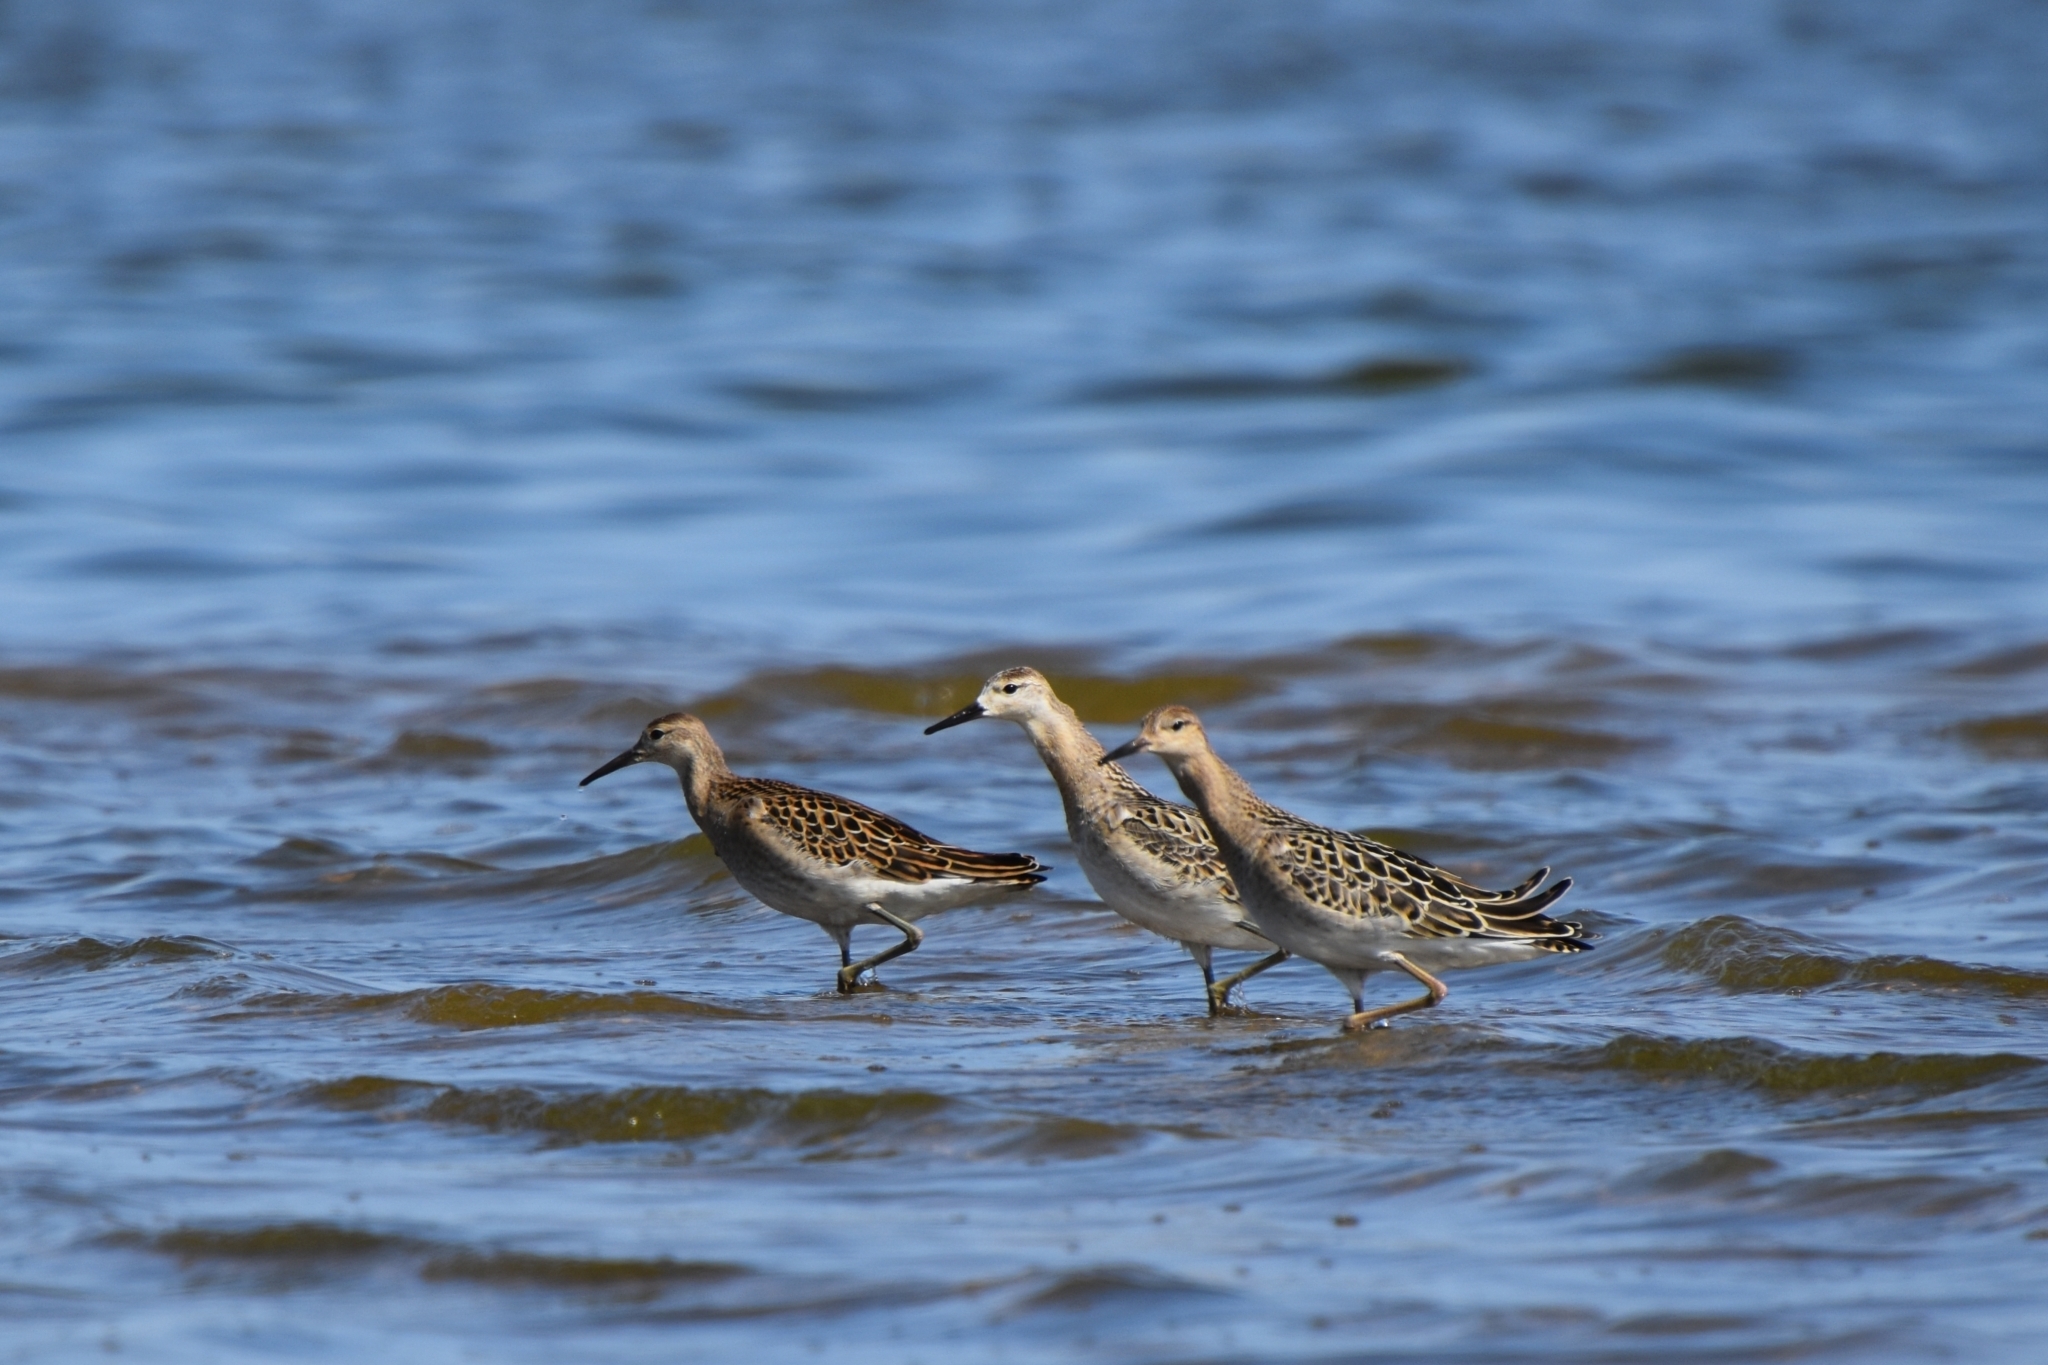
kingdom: Animalia
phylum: Chordata
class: Aves
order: Charadriiformes
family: Scolopacidae
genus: Calidris
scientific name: Calidris pugnax
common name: Ruff
